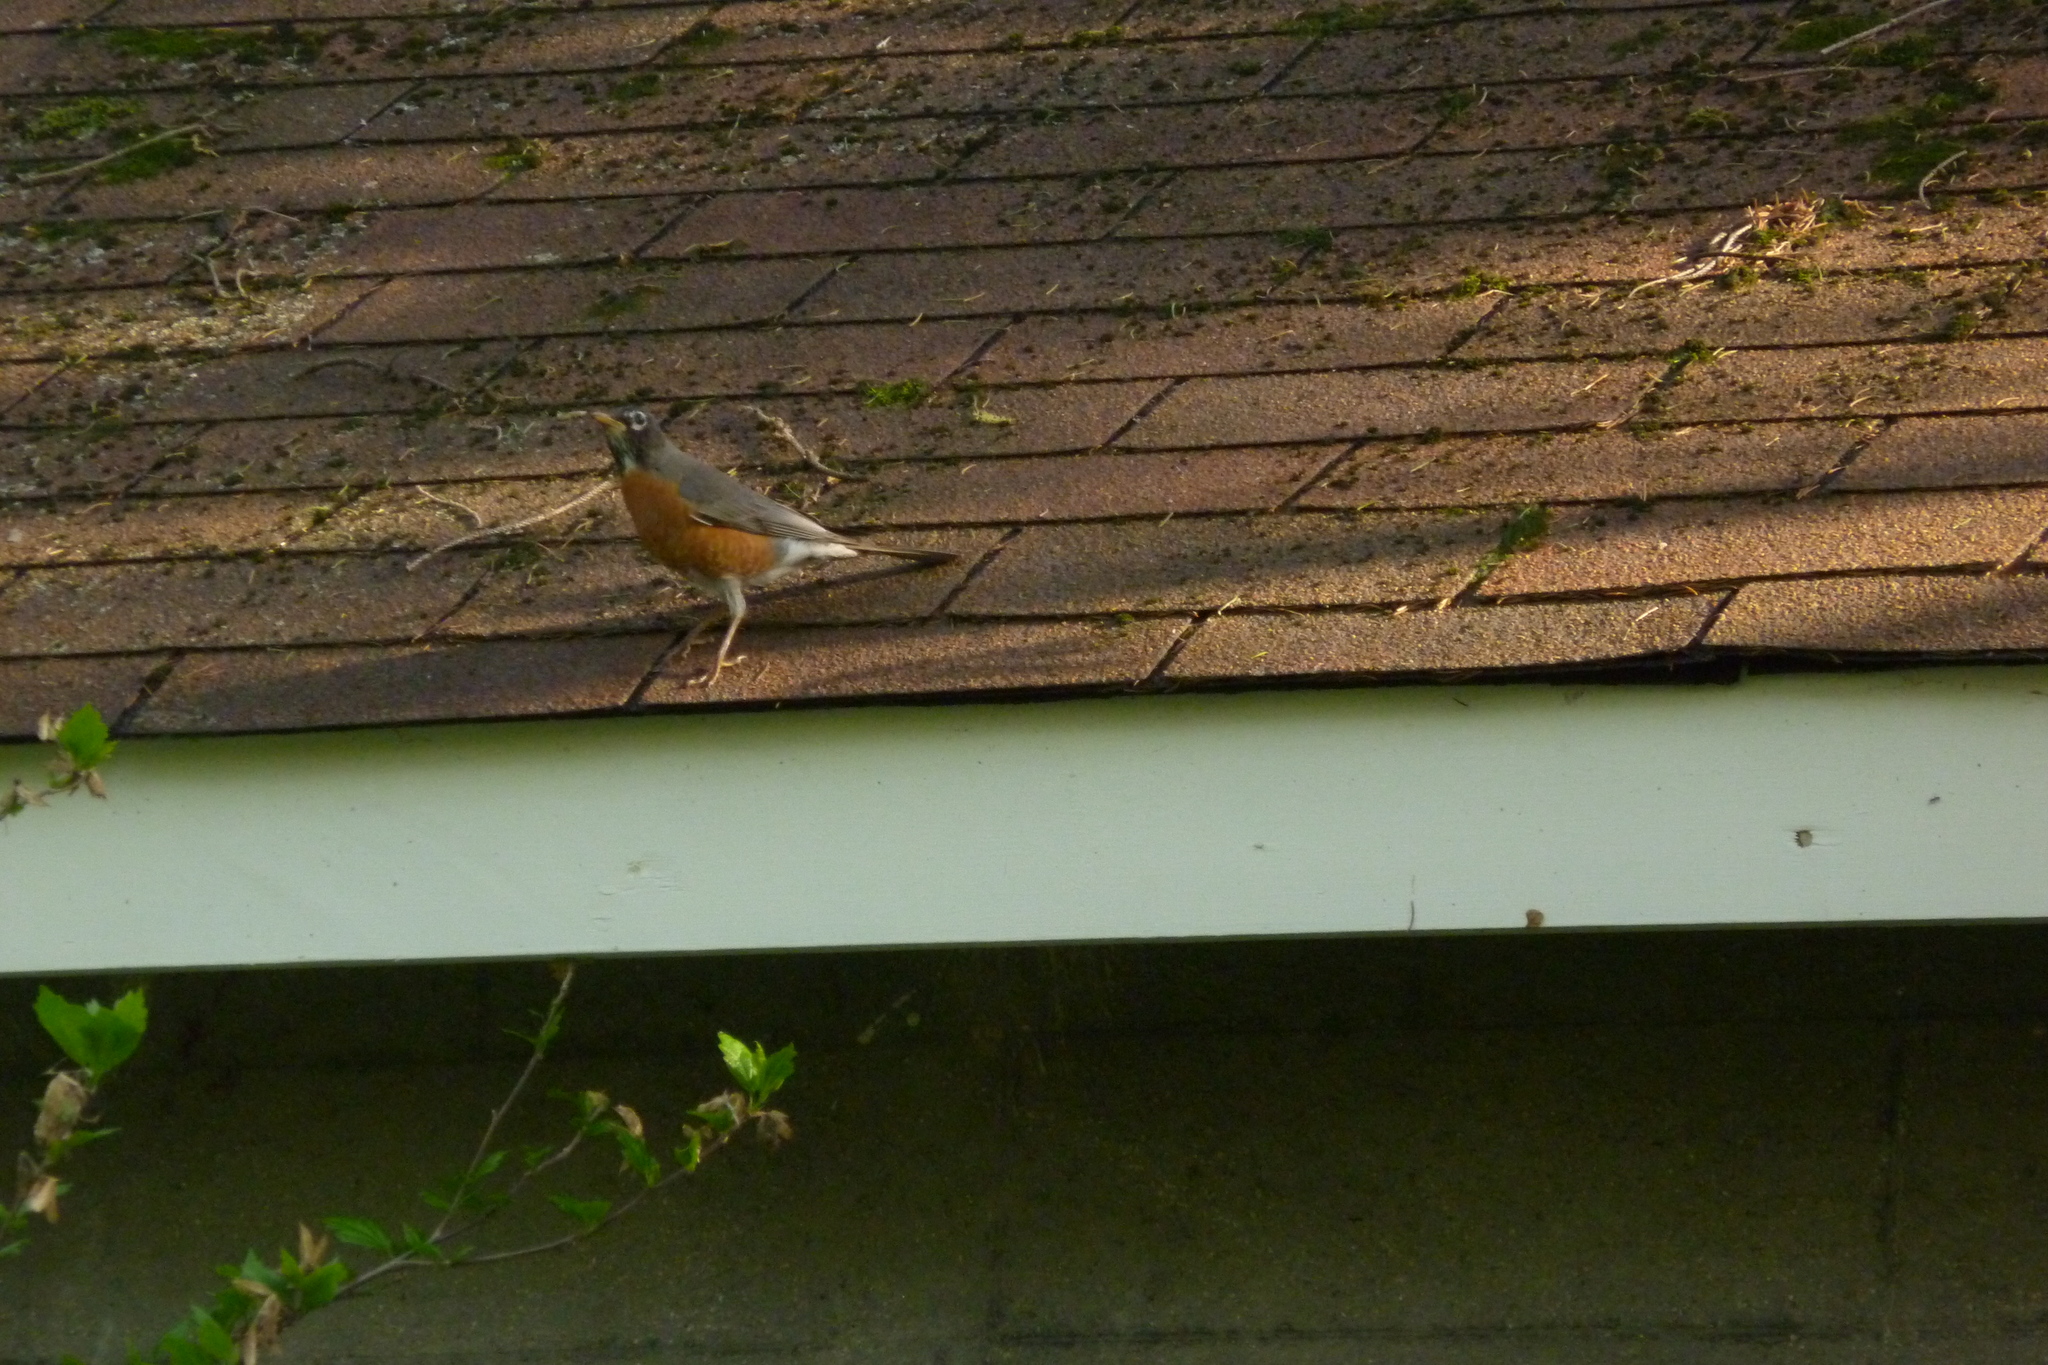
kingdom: Animalia
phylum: Chordata
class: Aves
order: Passeriformes
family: Turdidae
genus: Turdus
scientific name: Turdus migratorius
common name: American robin
